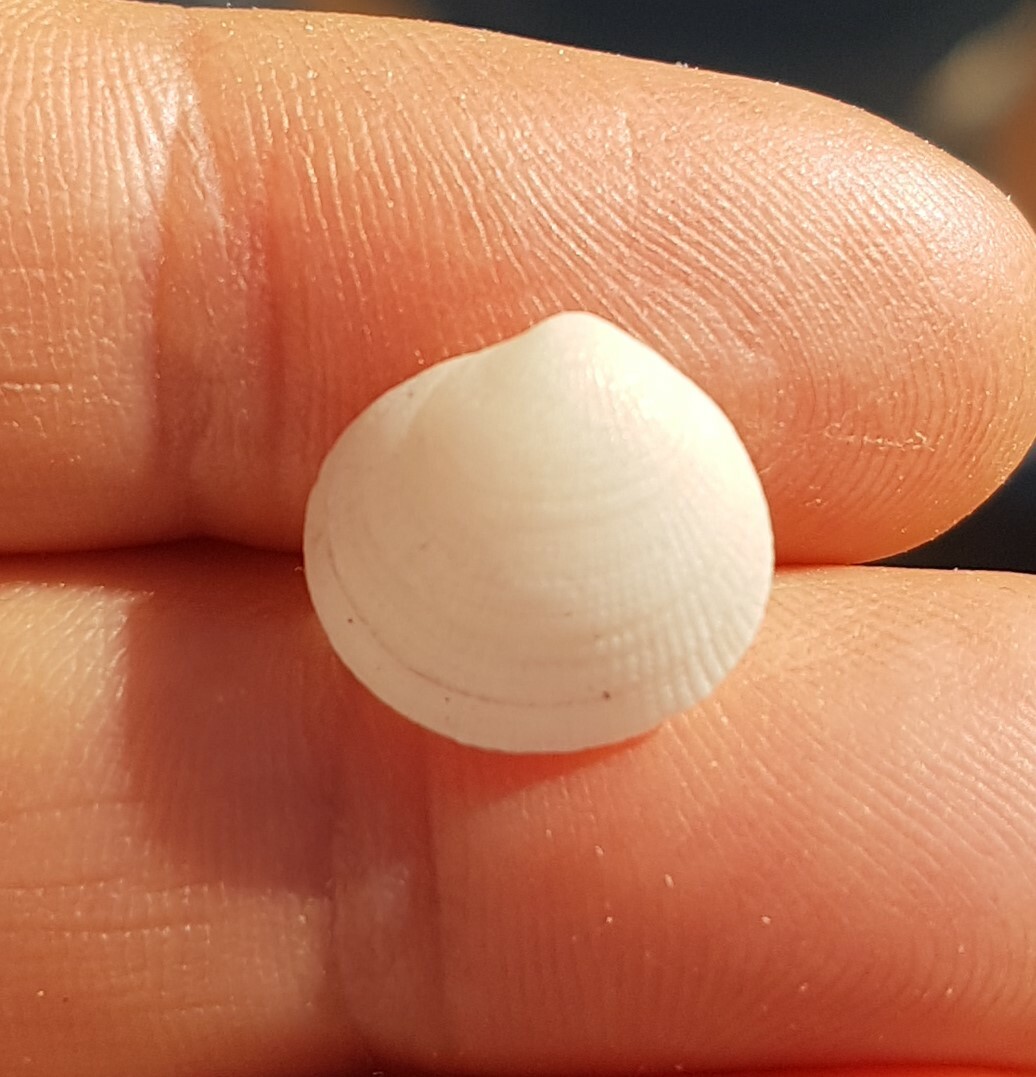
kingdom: Animalia
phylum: Mollusca
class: Bivalvia
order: Lucinida
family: Lucinidae
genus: Ctena
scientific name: Ctena decussata
